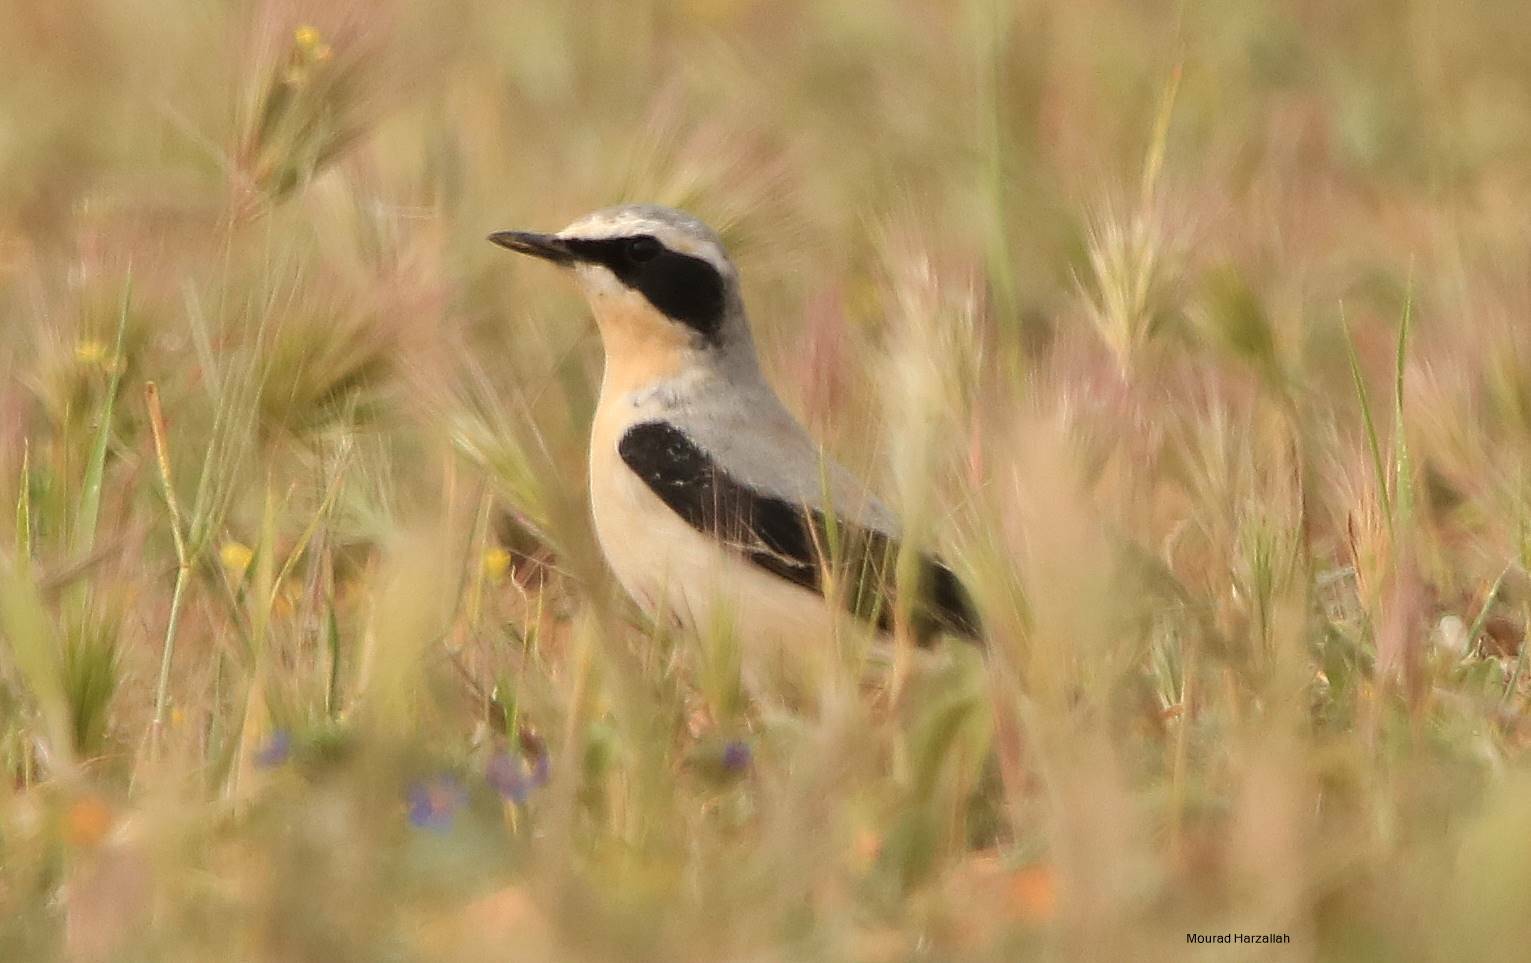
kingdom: Animalia
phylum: Chordata
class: Aves
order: Passeriformes
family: Muscicapidae
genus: Oenanthe
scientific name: Oenanthe oenanthe
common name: Northern wheatear
